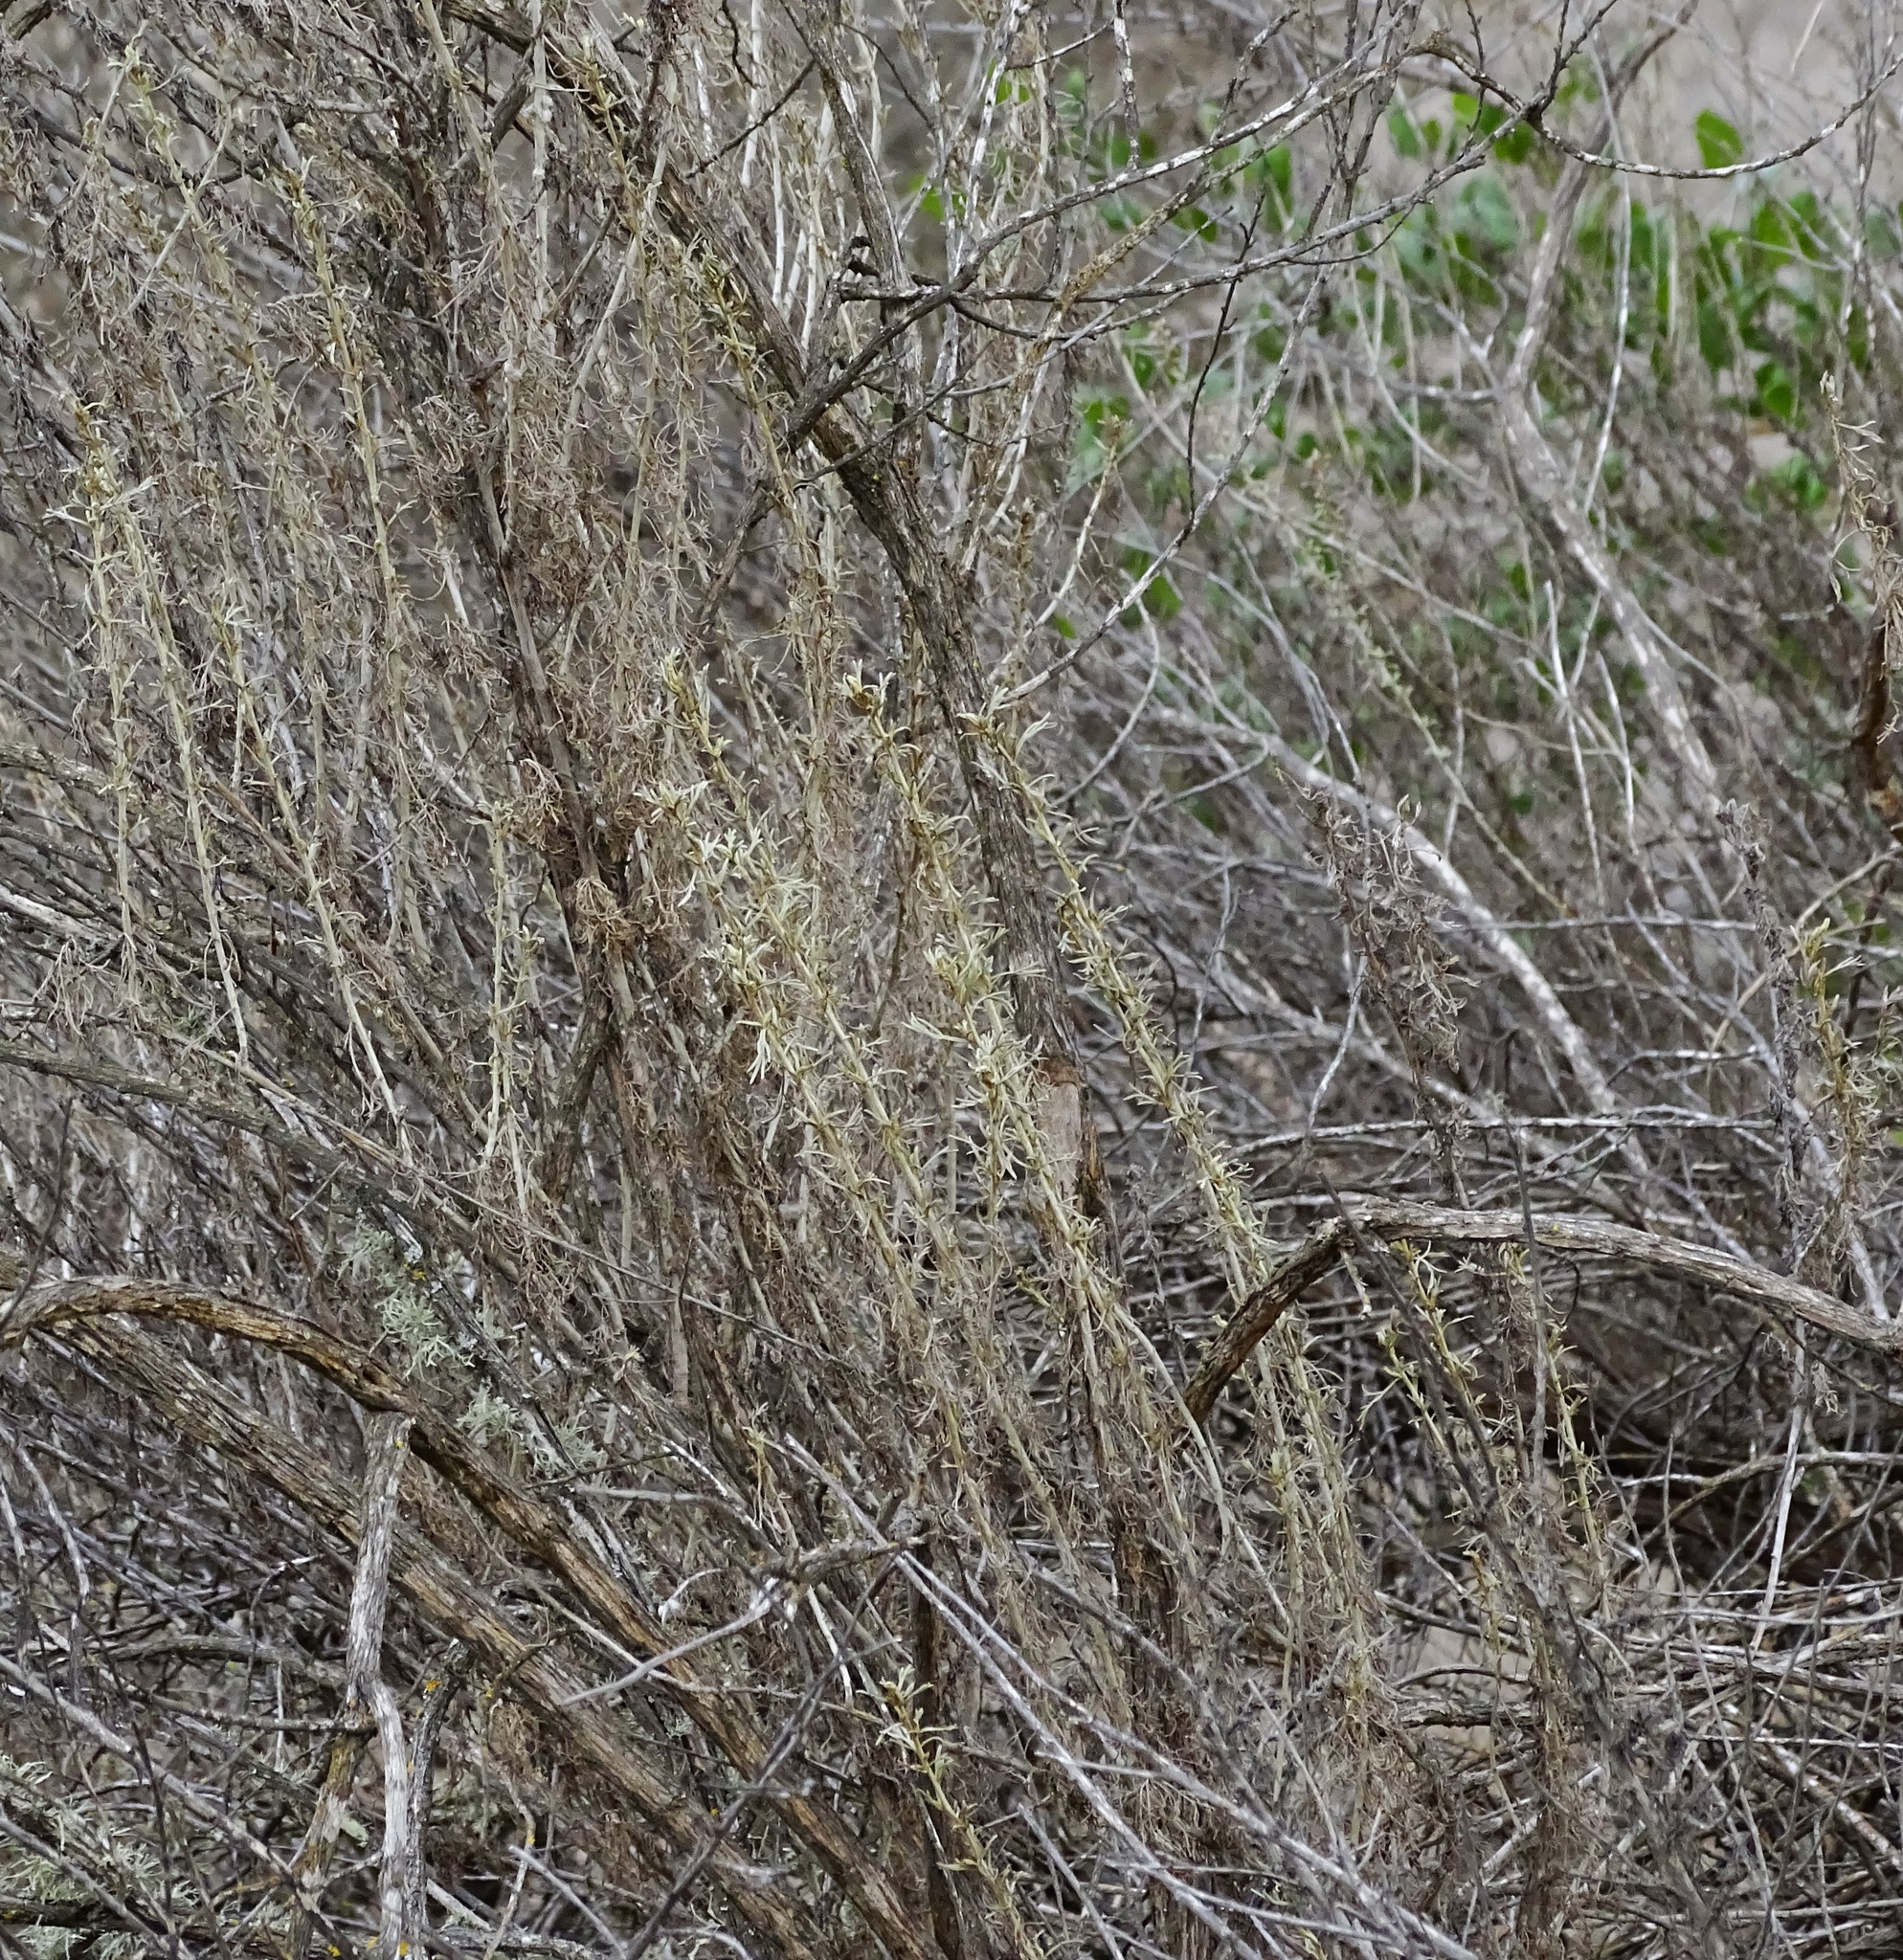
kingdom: Plantae
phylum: Tracheophyta
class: Magnoliopsida
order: Asterales
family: Asteraceae
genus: Artemisia
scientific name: Artemisia californica
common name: California sagebrush
